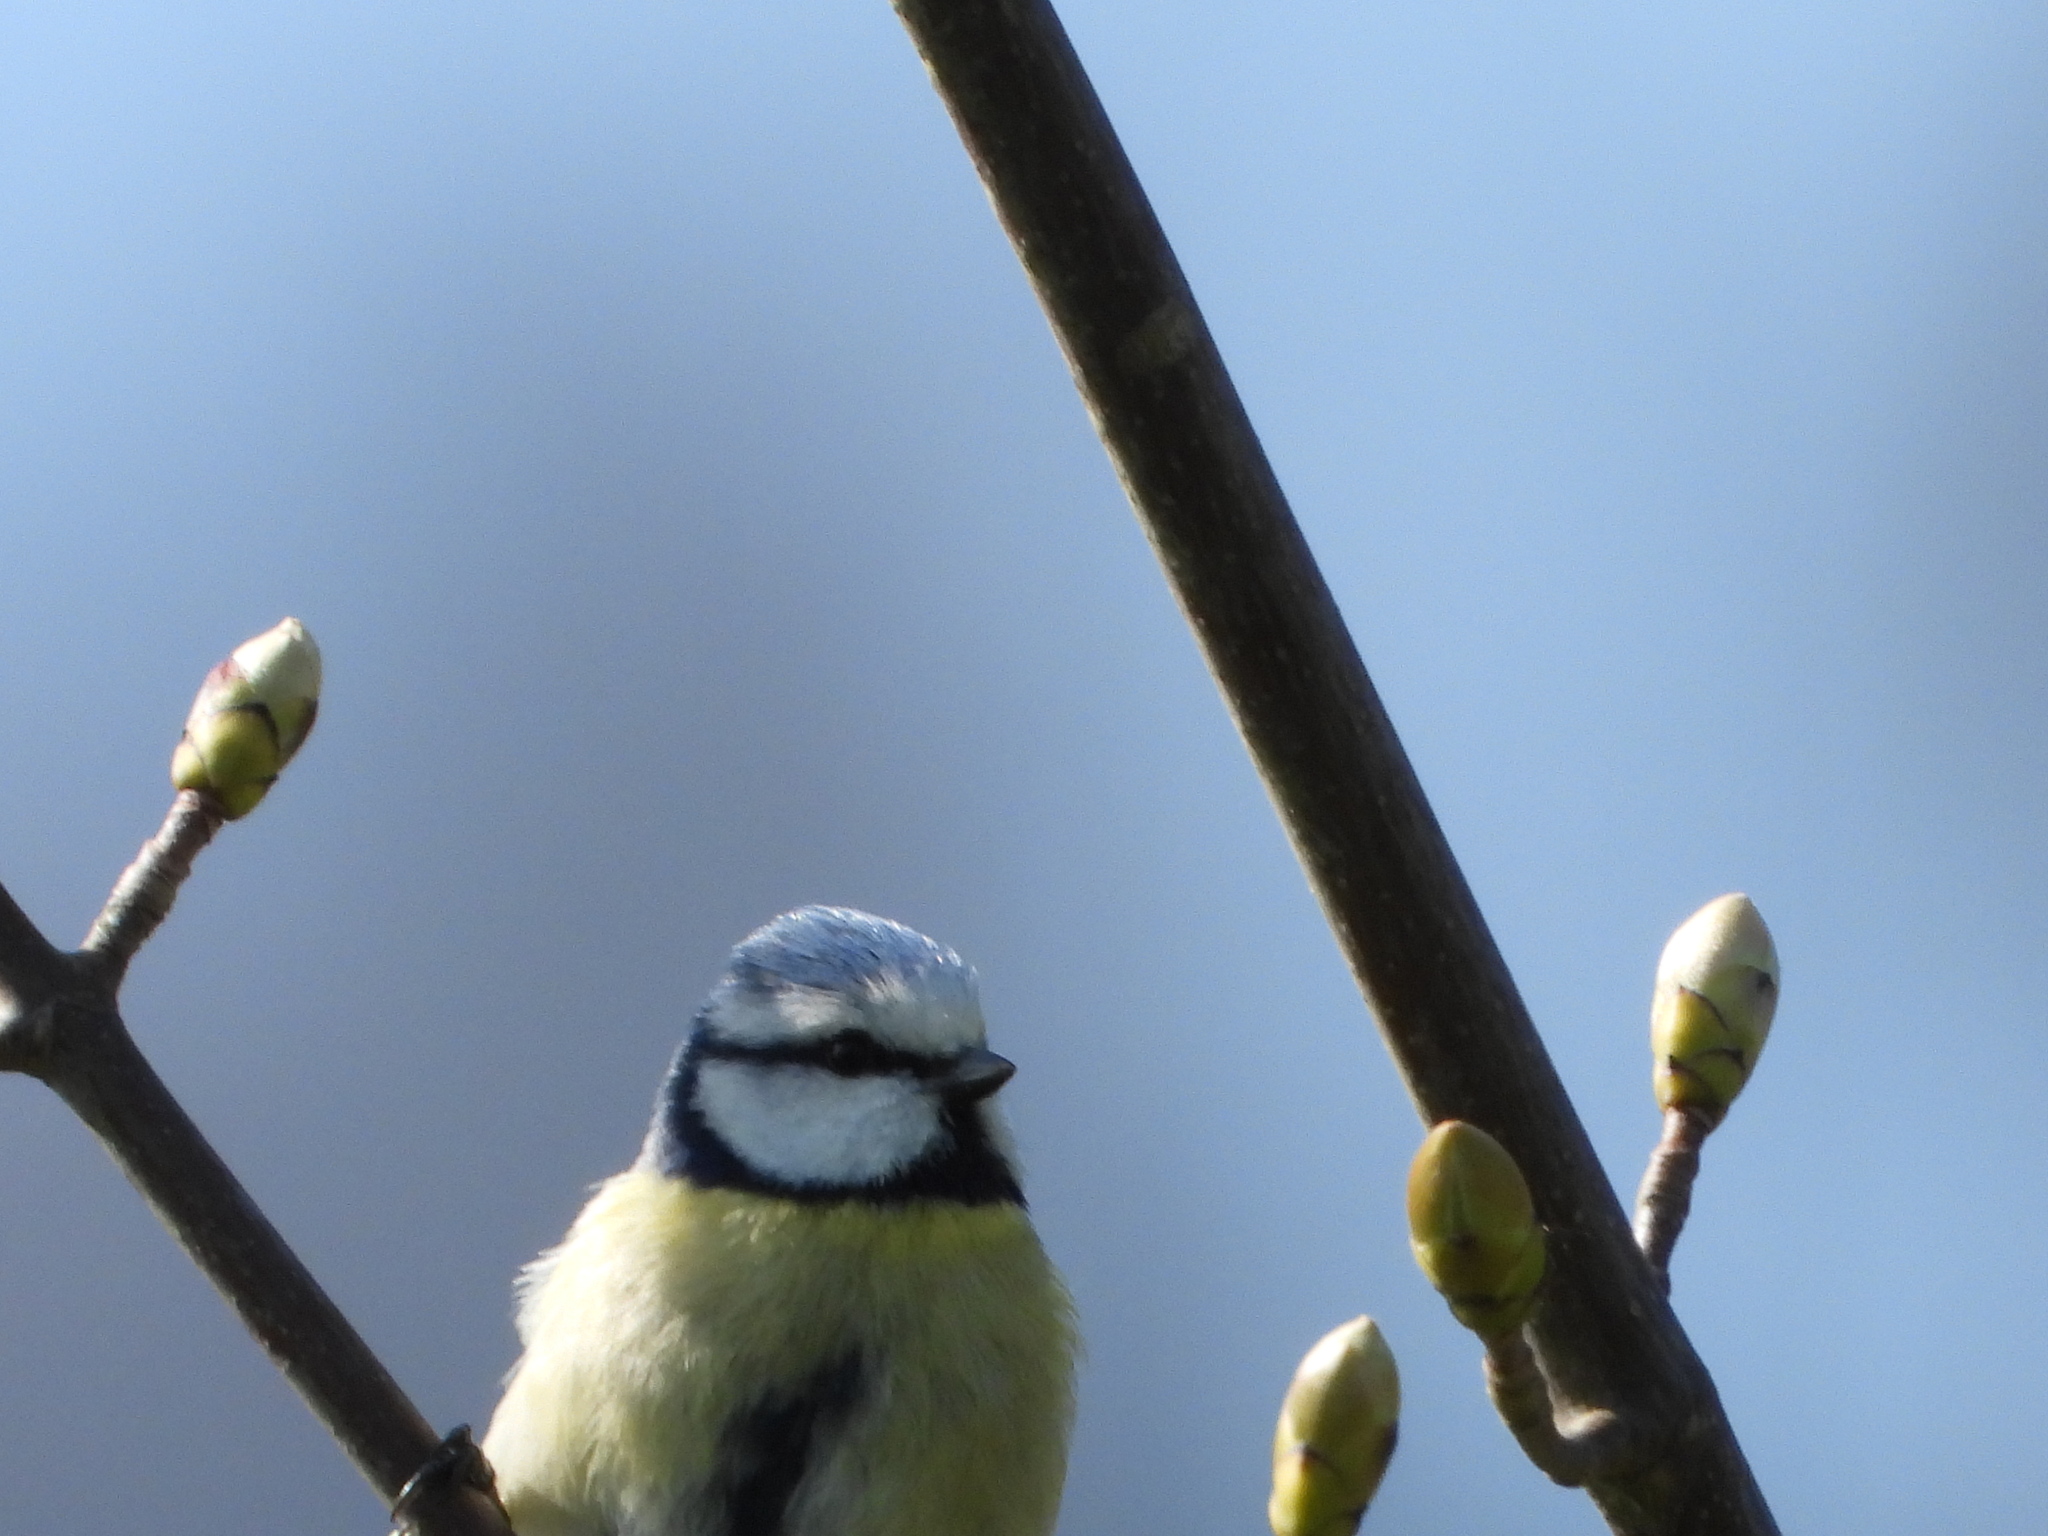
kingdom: Animalia
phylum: Chordata
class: Aves
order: Passeriformes
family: Paridae
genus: Cyanistes
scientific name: Cyanistes caeruleus
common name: Eurasian blue tit
